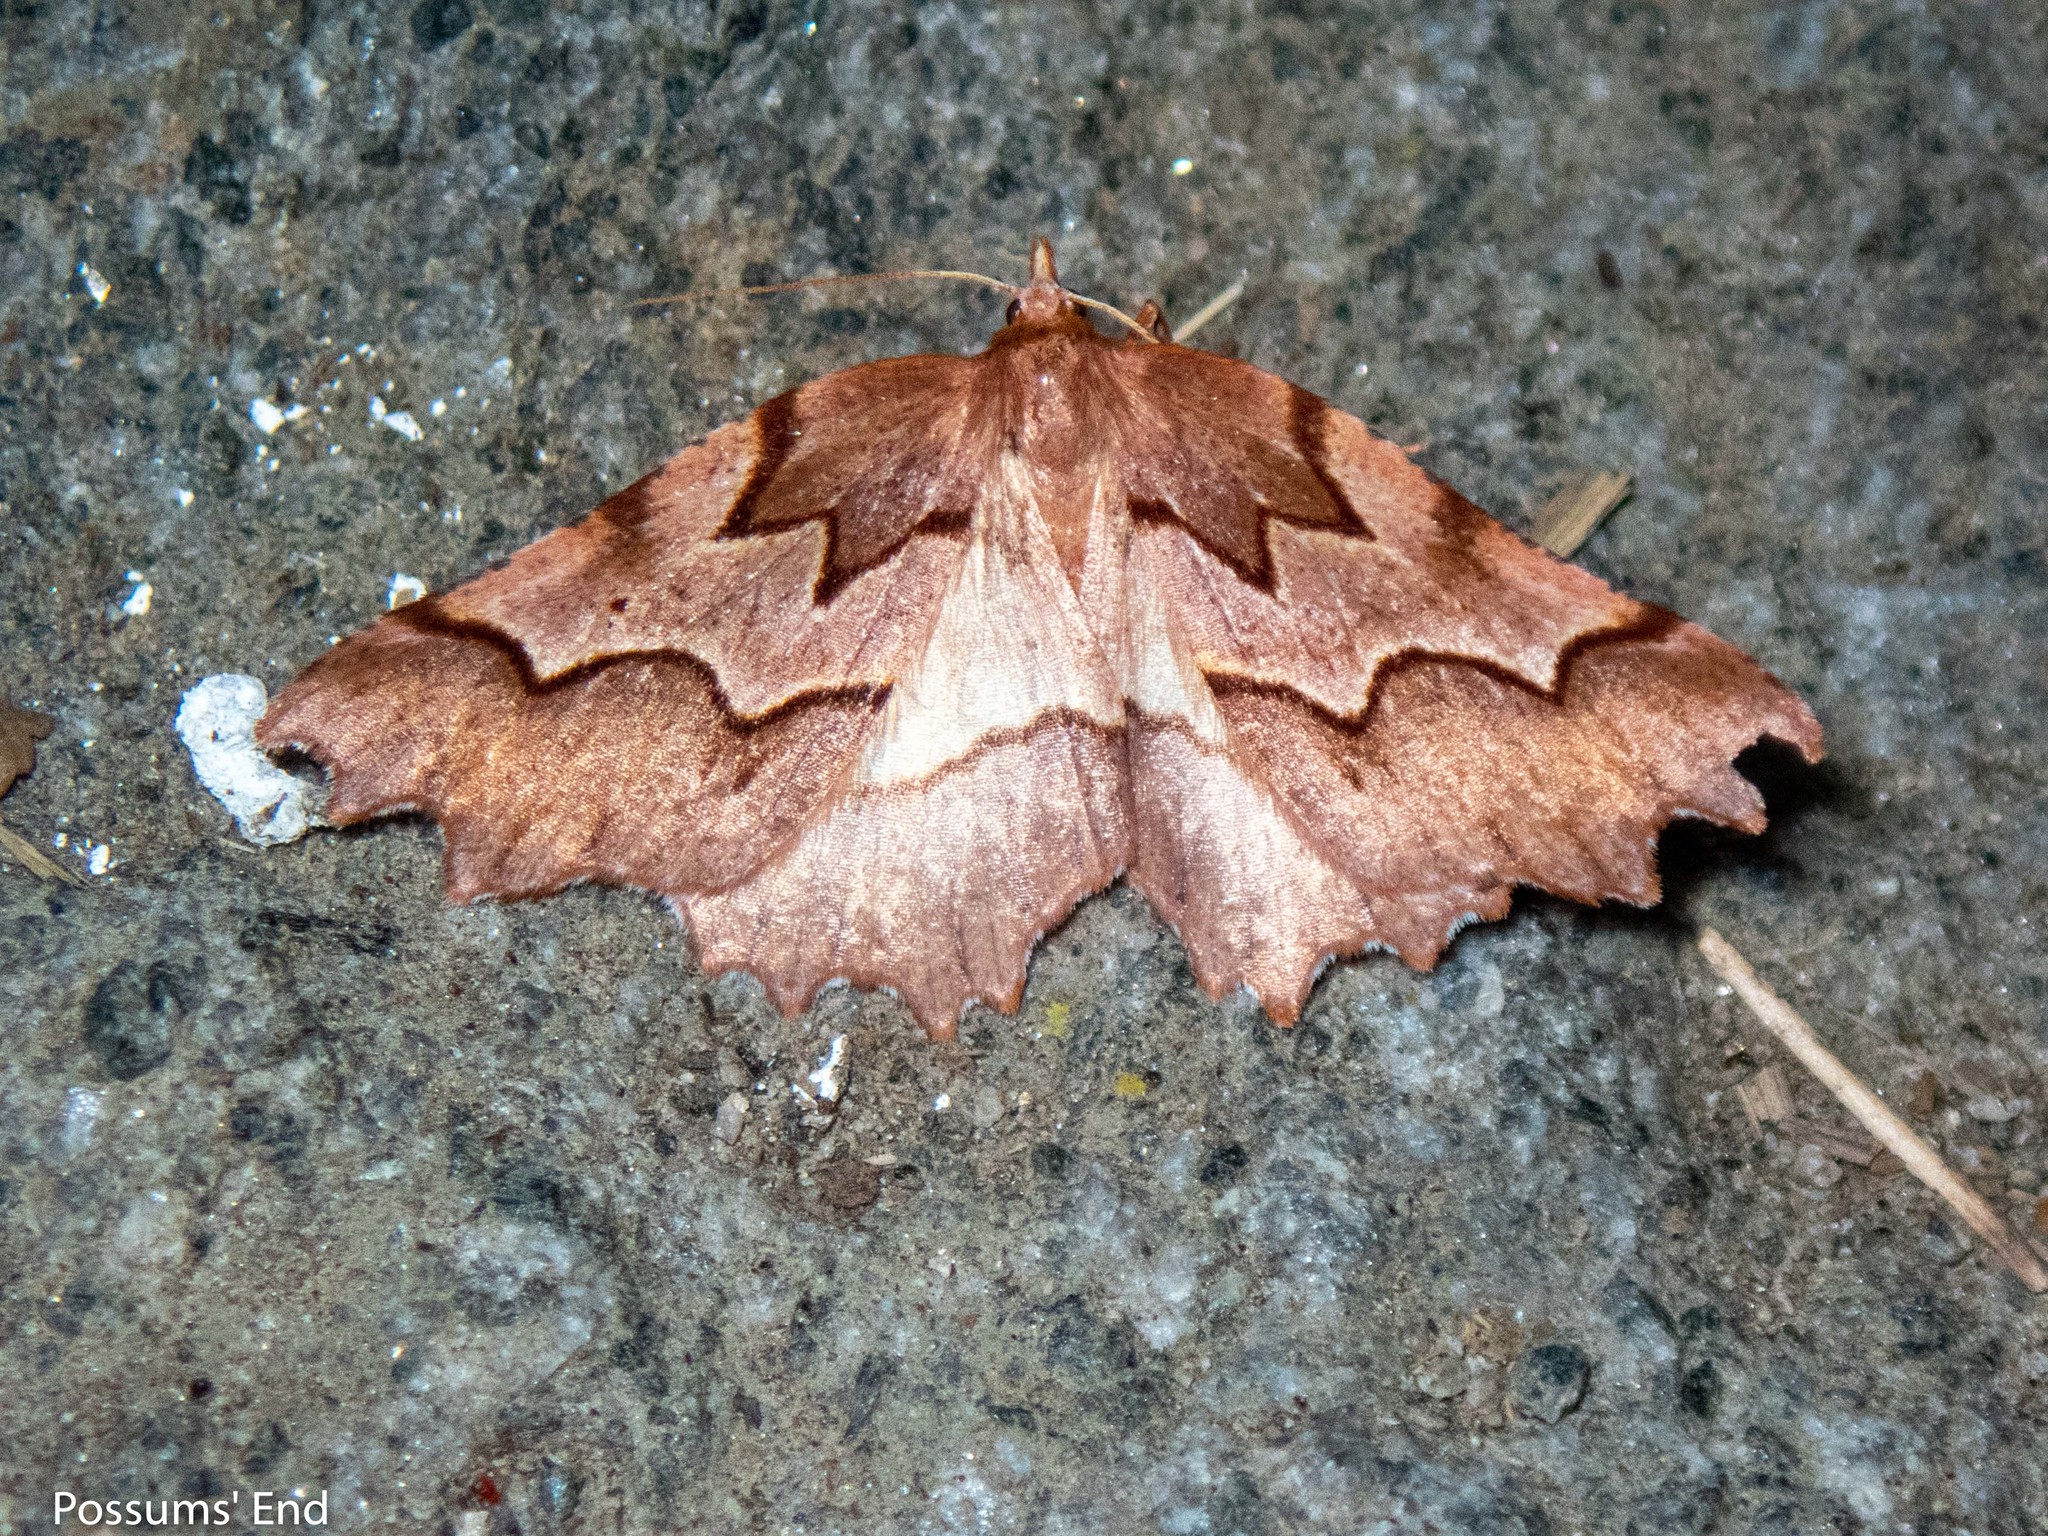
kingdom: Animalia
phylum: Arthropoda
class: Insecta
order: Lepidoptera
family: Geometridae
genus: Ischalis
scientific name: Ischalis fortinata
